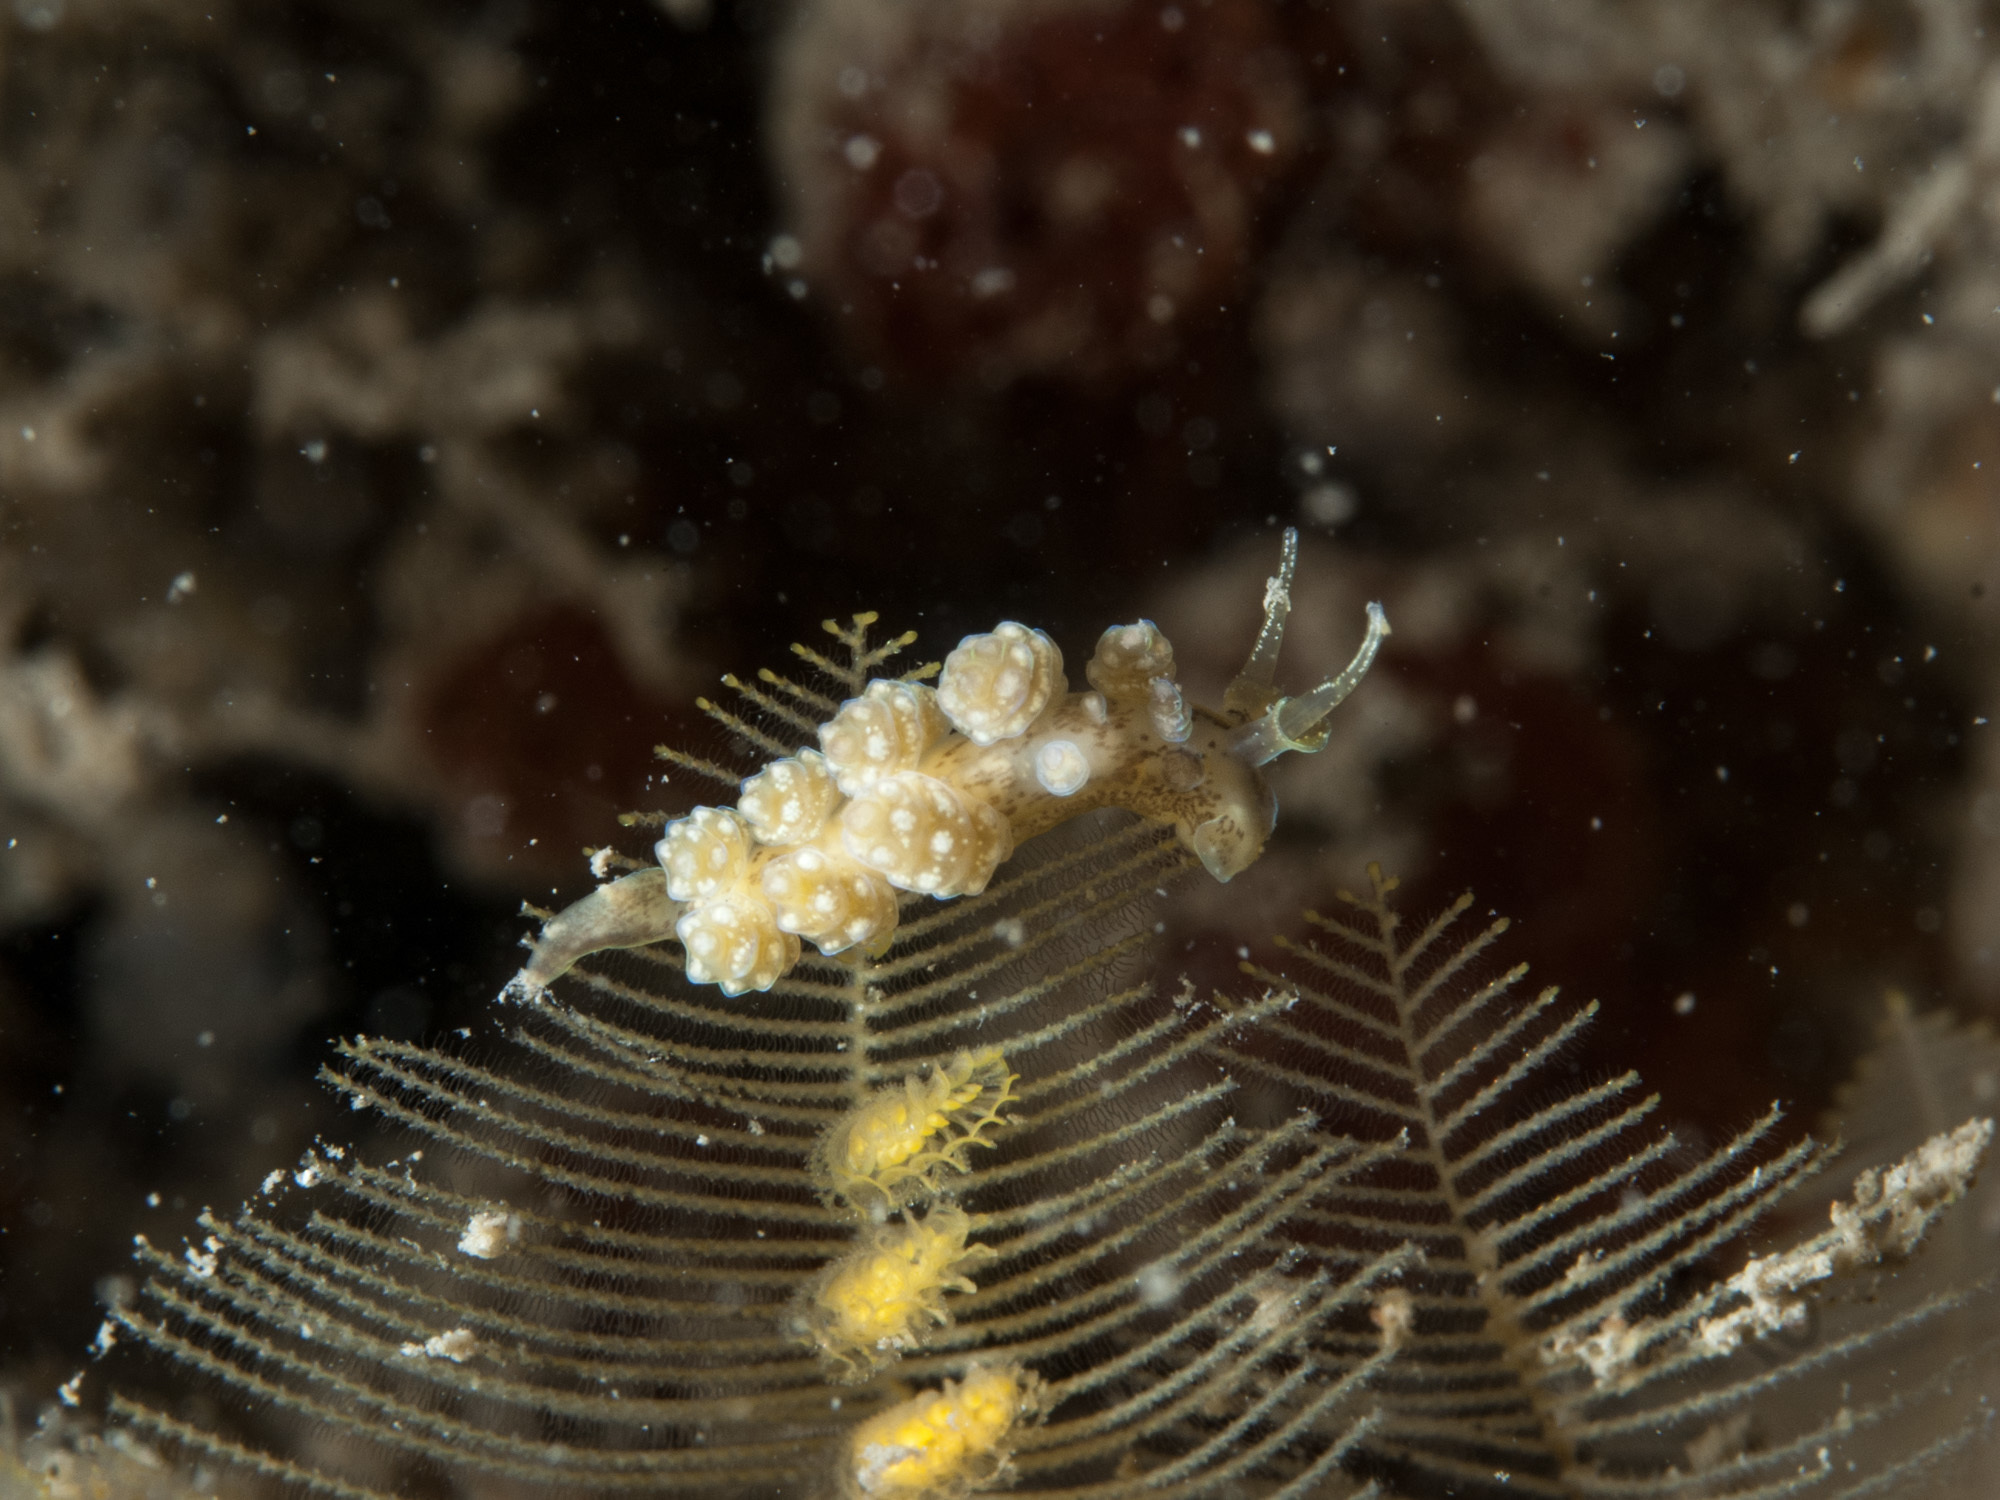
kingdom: Animalia
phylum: Mollusca
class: Gastropoda
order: Nudibranchia
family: Dotidae
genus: Doto
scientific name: Doto lemchei
